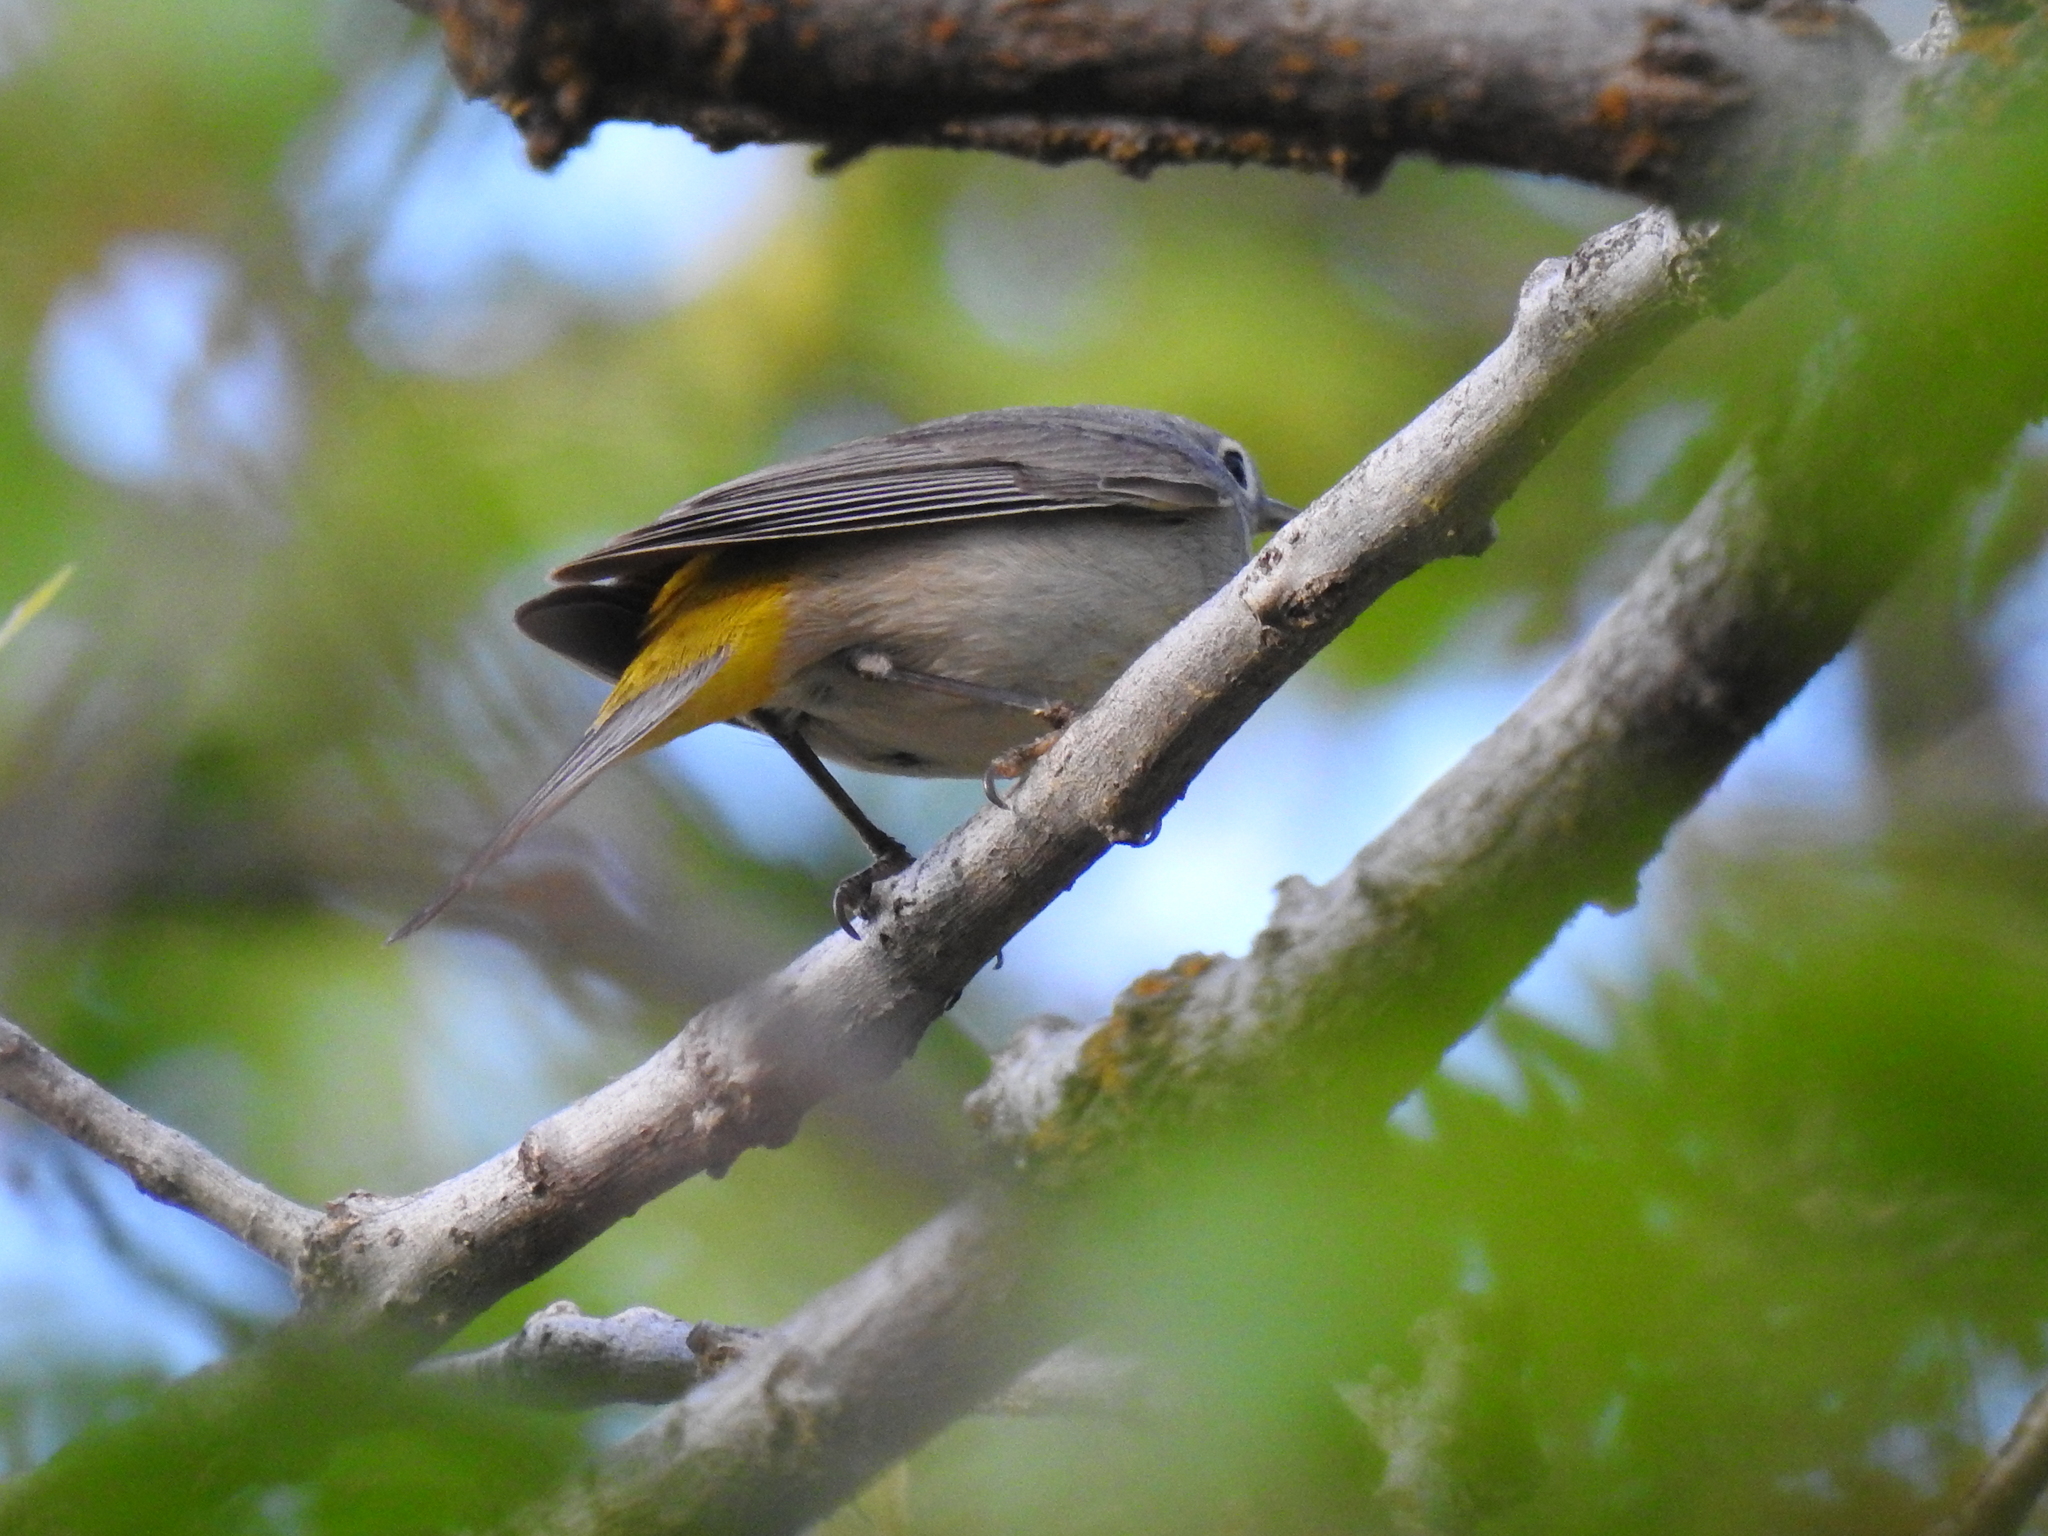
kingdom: Animalia
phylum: Chordata
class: Aves
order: Passeriformes
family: Parulidae
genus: Leiothlypis
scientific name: Leiothlypis virginiae
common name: Virginia's warbler
